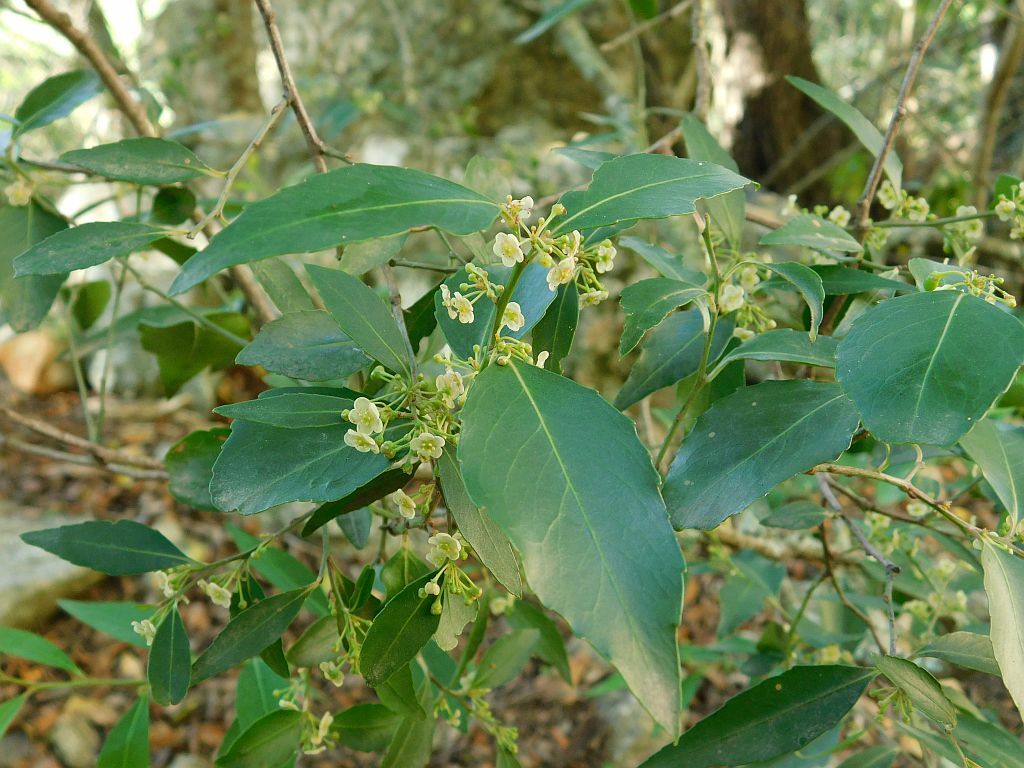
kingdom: Plantae
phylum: Tracheophyta
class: Magnoliopsida
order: Celastrales
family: Celastraceae
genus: Gymnosporia
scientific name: Gymnosporia acuminata
